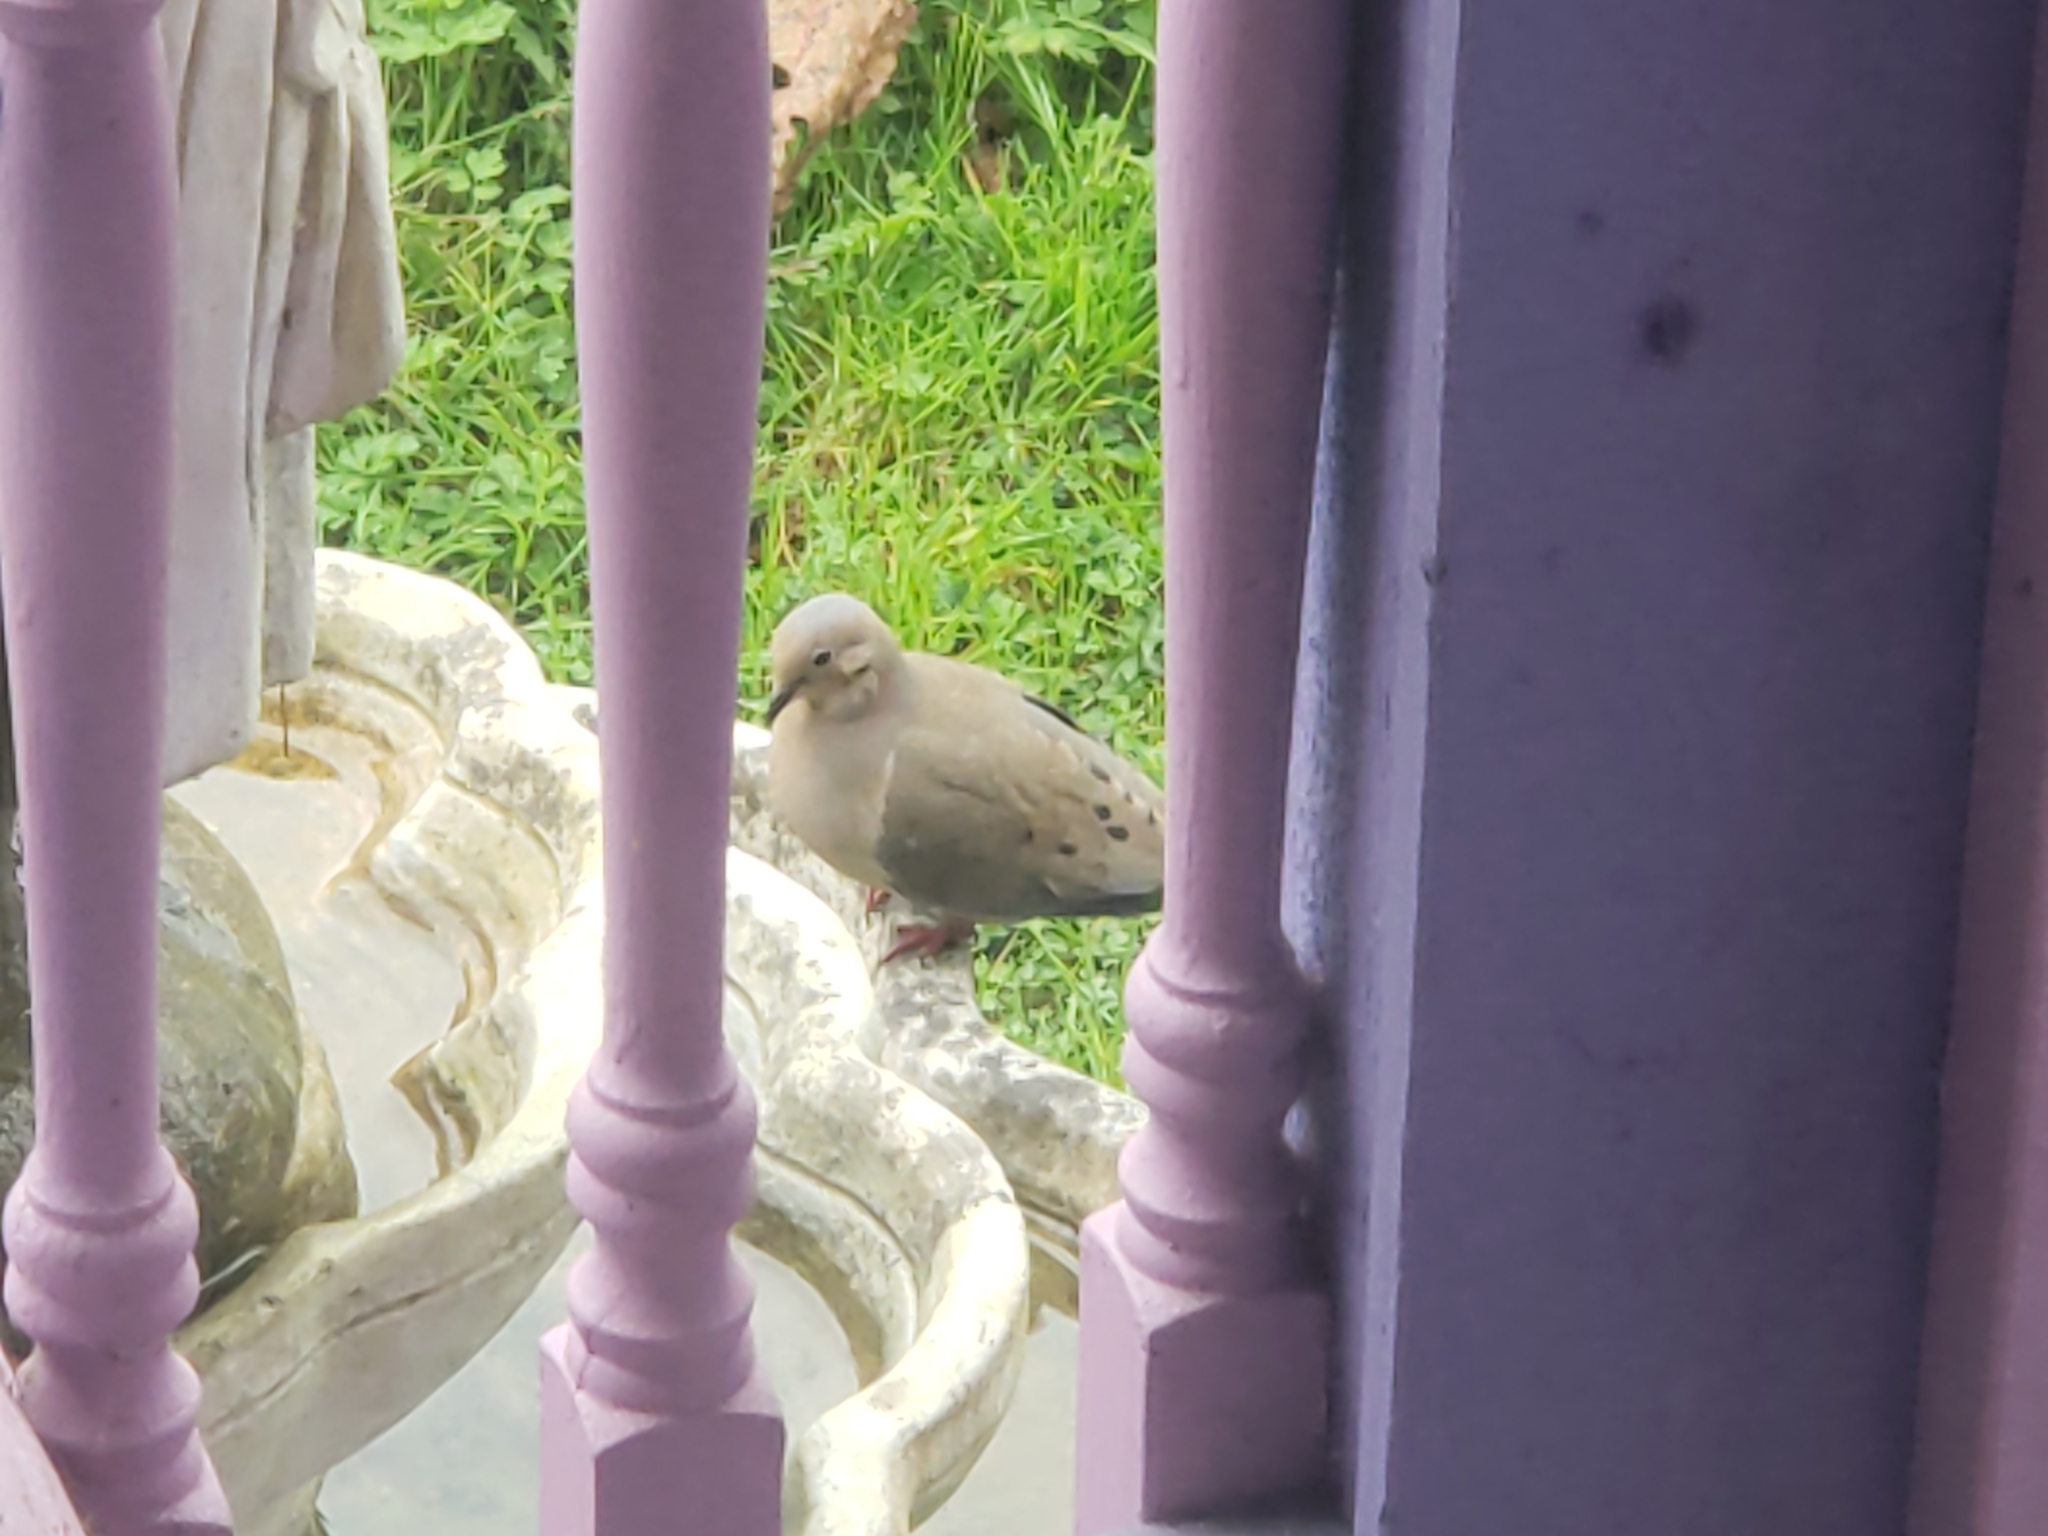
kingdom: Animalia
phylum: Chordata
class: Aves
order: Columbiformes
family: Columbidae
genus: Zenaida
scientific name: Zenaida macroura
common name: Mourning dove
